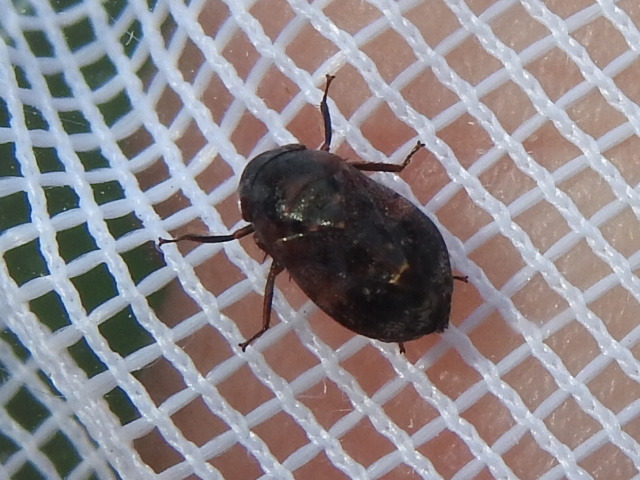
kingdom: Animalia
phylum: Arthropoda
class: Insecta
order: Hemiptera
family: Cicadellidae
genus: Penthimia
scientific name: Penthimia americana
